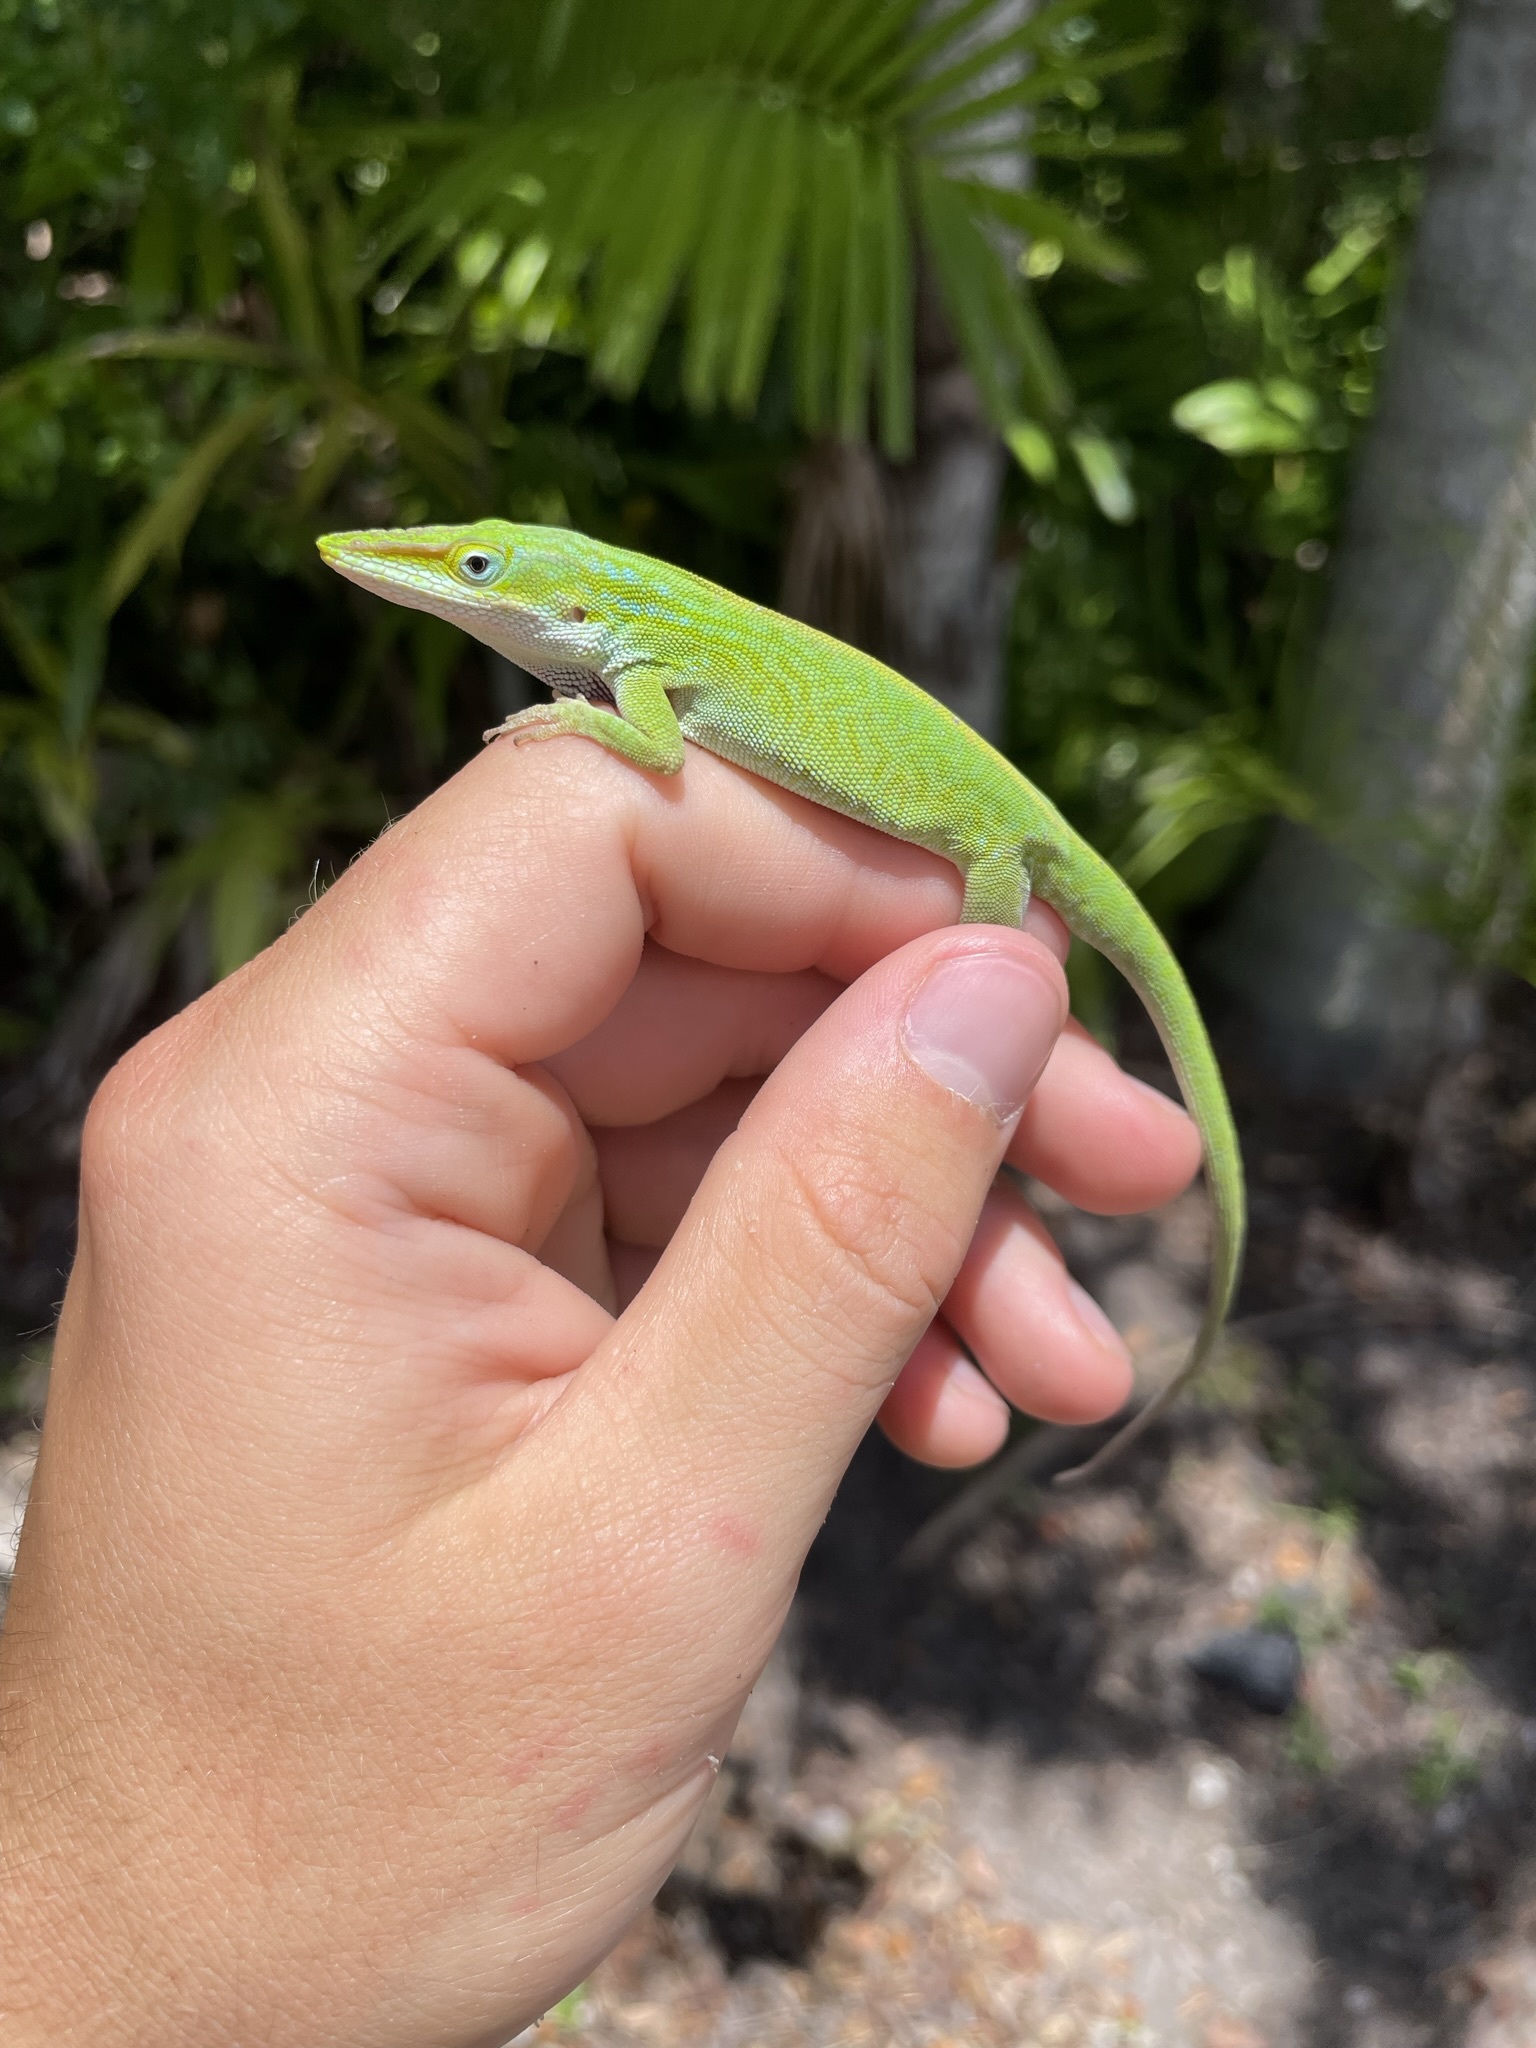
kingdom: Animalia
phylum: Chordata
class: Squamata
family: Dactyloidae
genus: Anolis
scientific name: Anolis carolinensis
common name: Green anole
